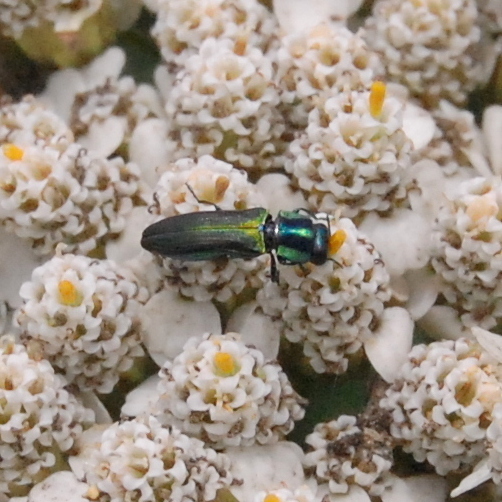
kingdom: Animalia
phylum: Arthropoda
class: Insecta
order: Coleoptera
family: Buprestidae
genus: Agrilaxia
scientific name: Agrilaxia decipiens
